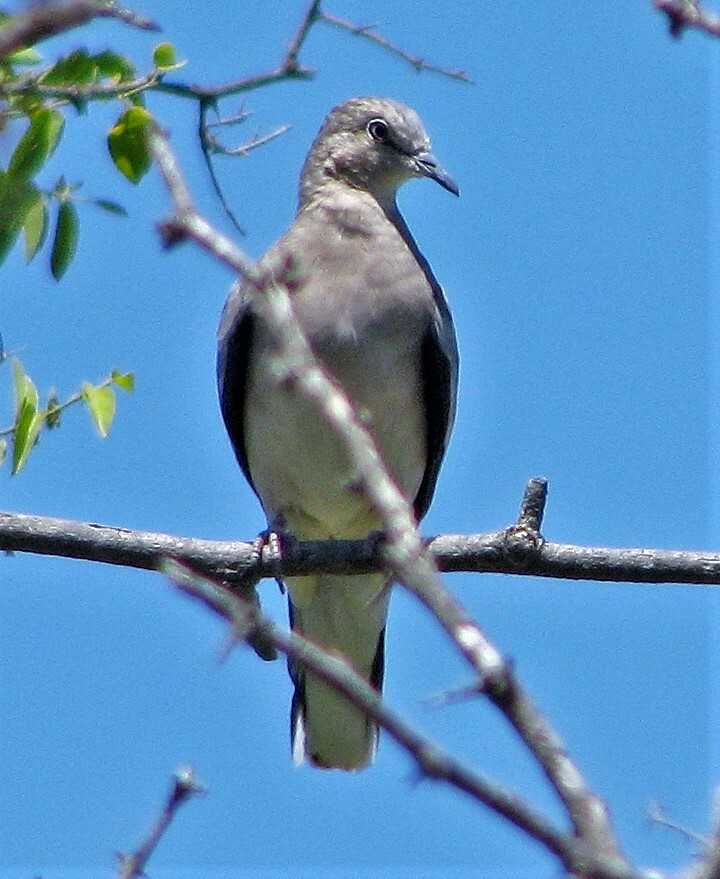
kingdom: Animalia
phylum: Chordata
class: Aves
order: Columbiformes
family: Columbidae
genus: Columbina
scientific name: Columbina picui
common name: Picui ground dove
